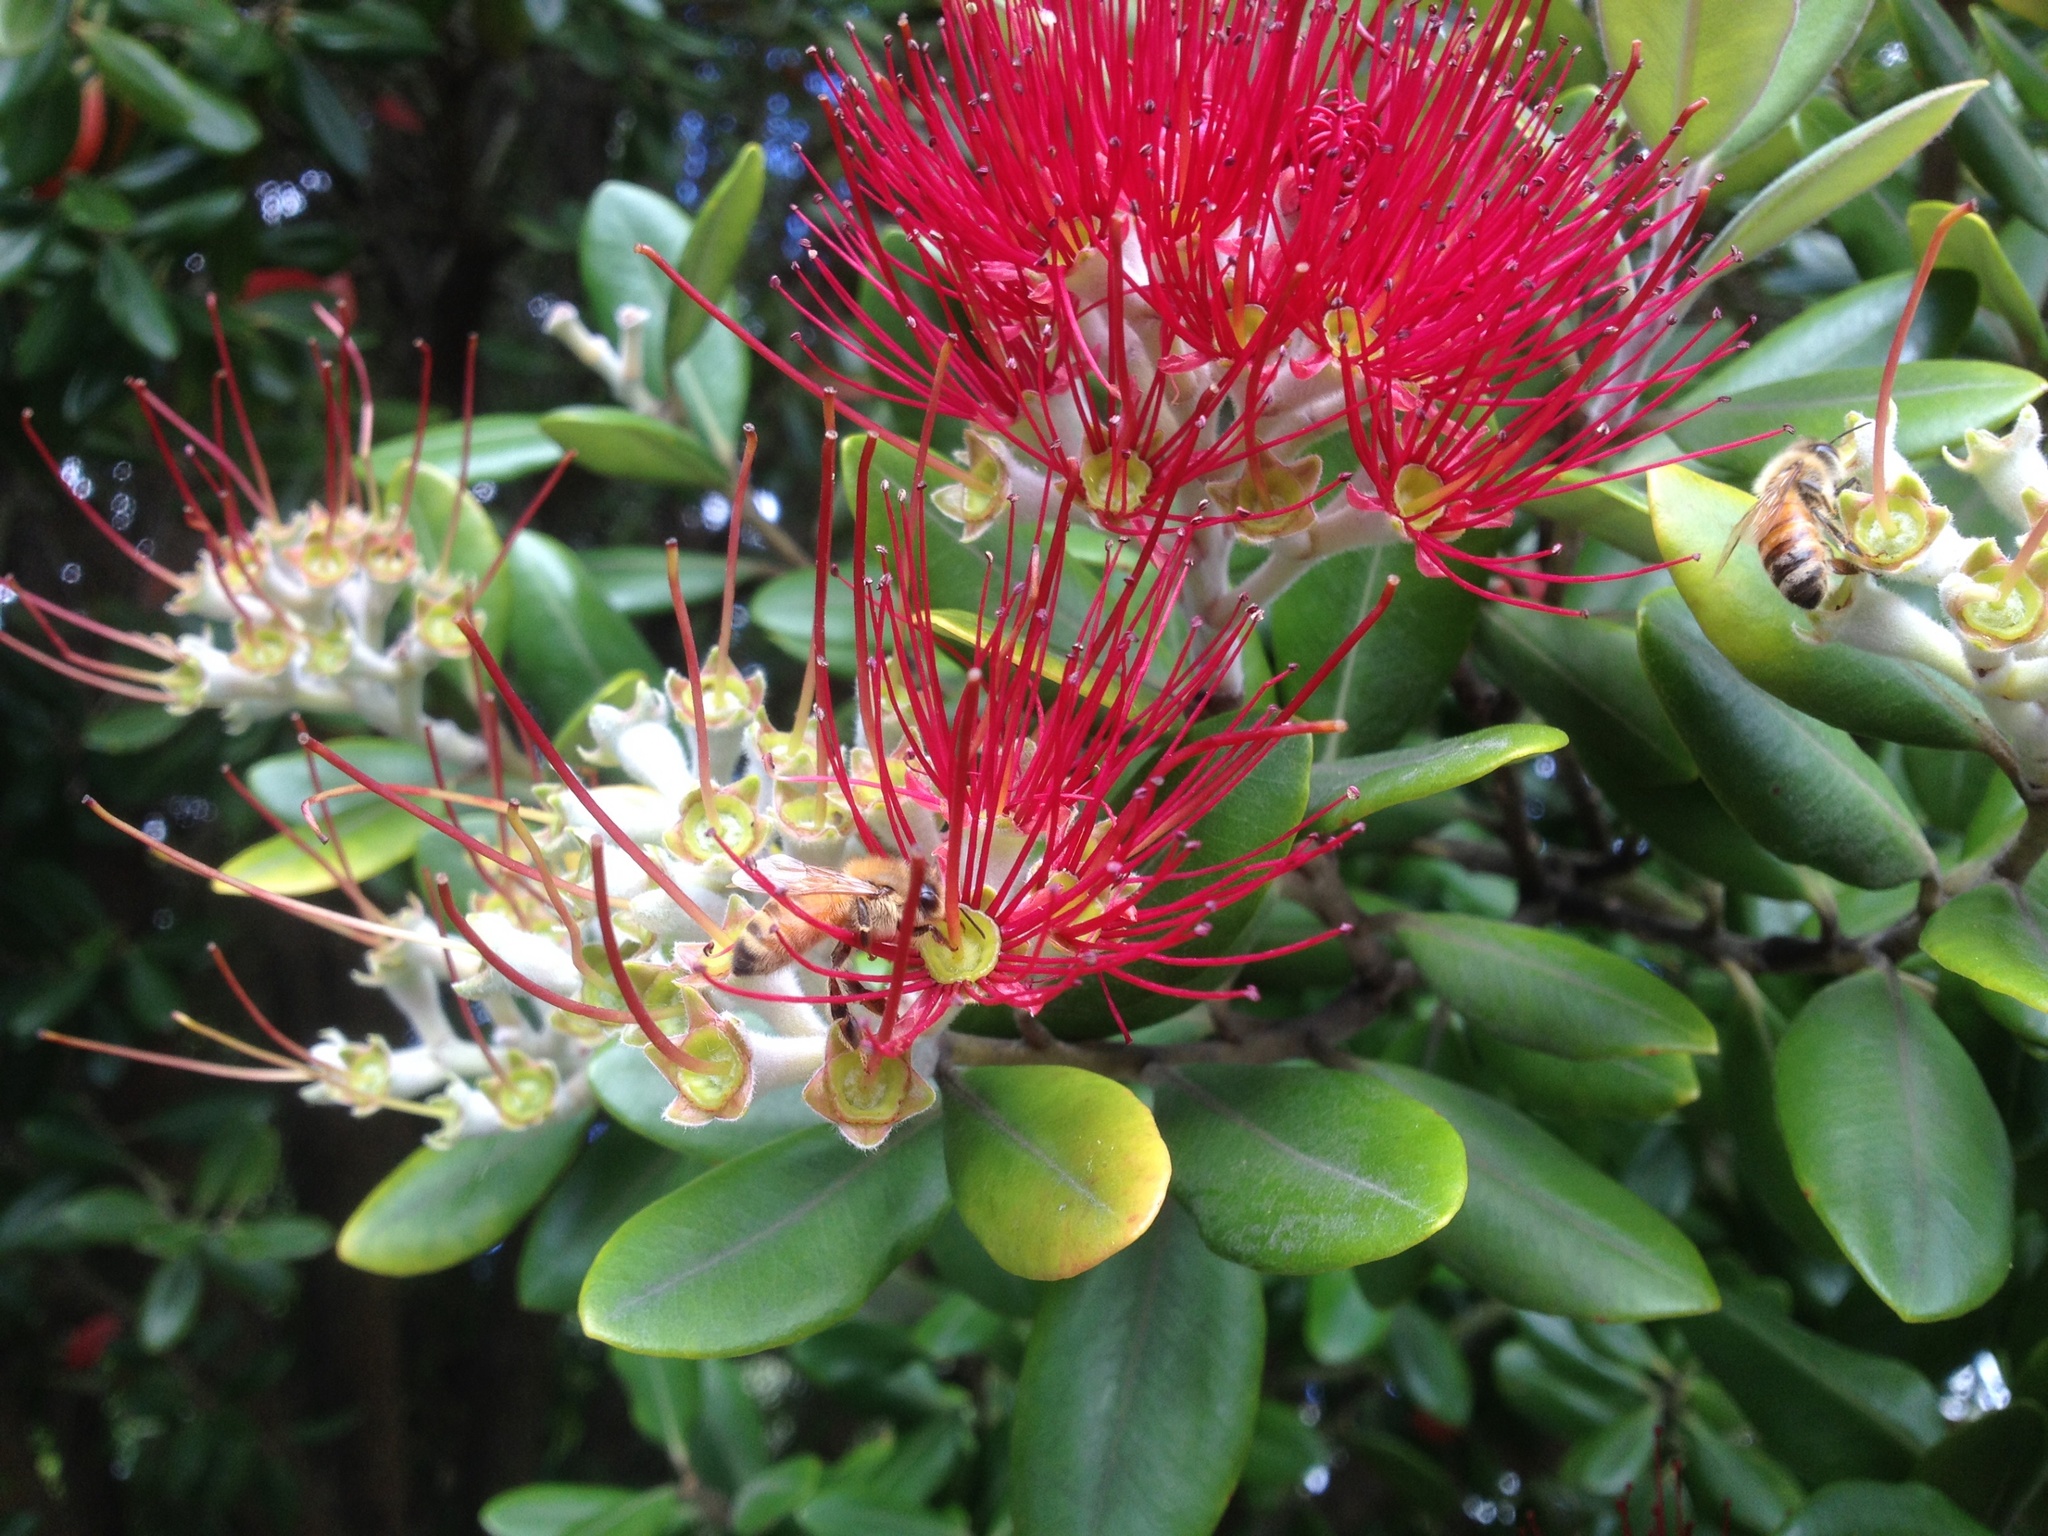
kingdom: Animalia
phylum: Arthropoda
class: Insecta
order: Hymenoptera
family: Apidae
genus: Apis
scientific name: Apis mellifera
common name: Honey bee
